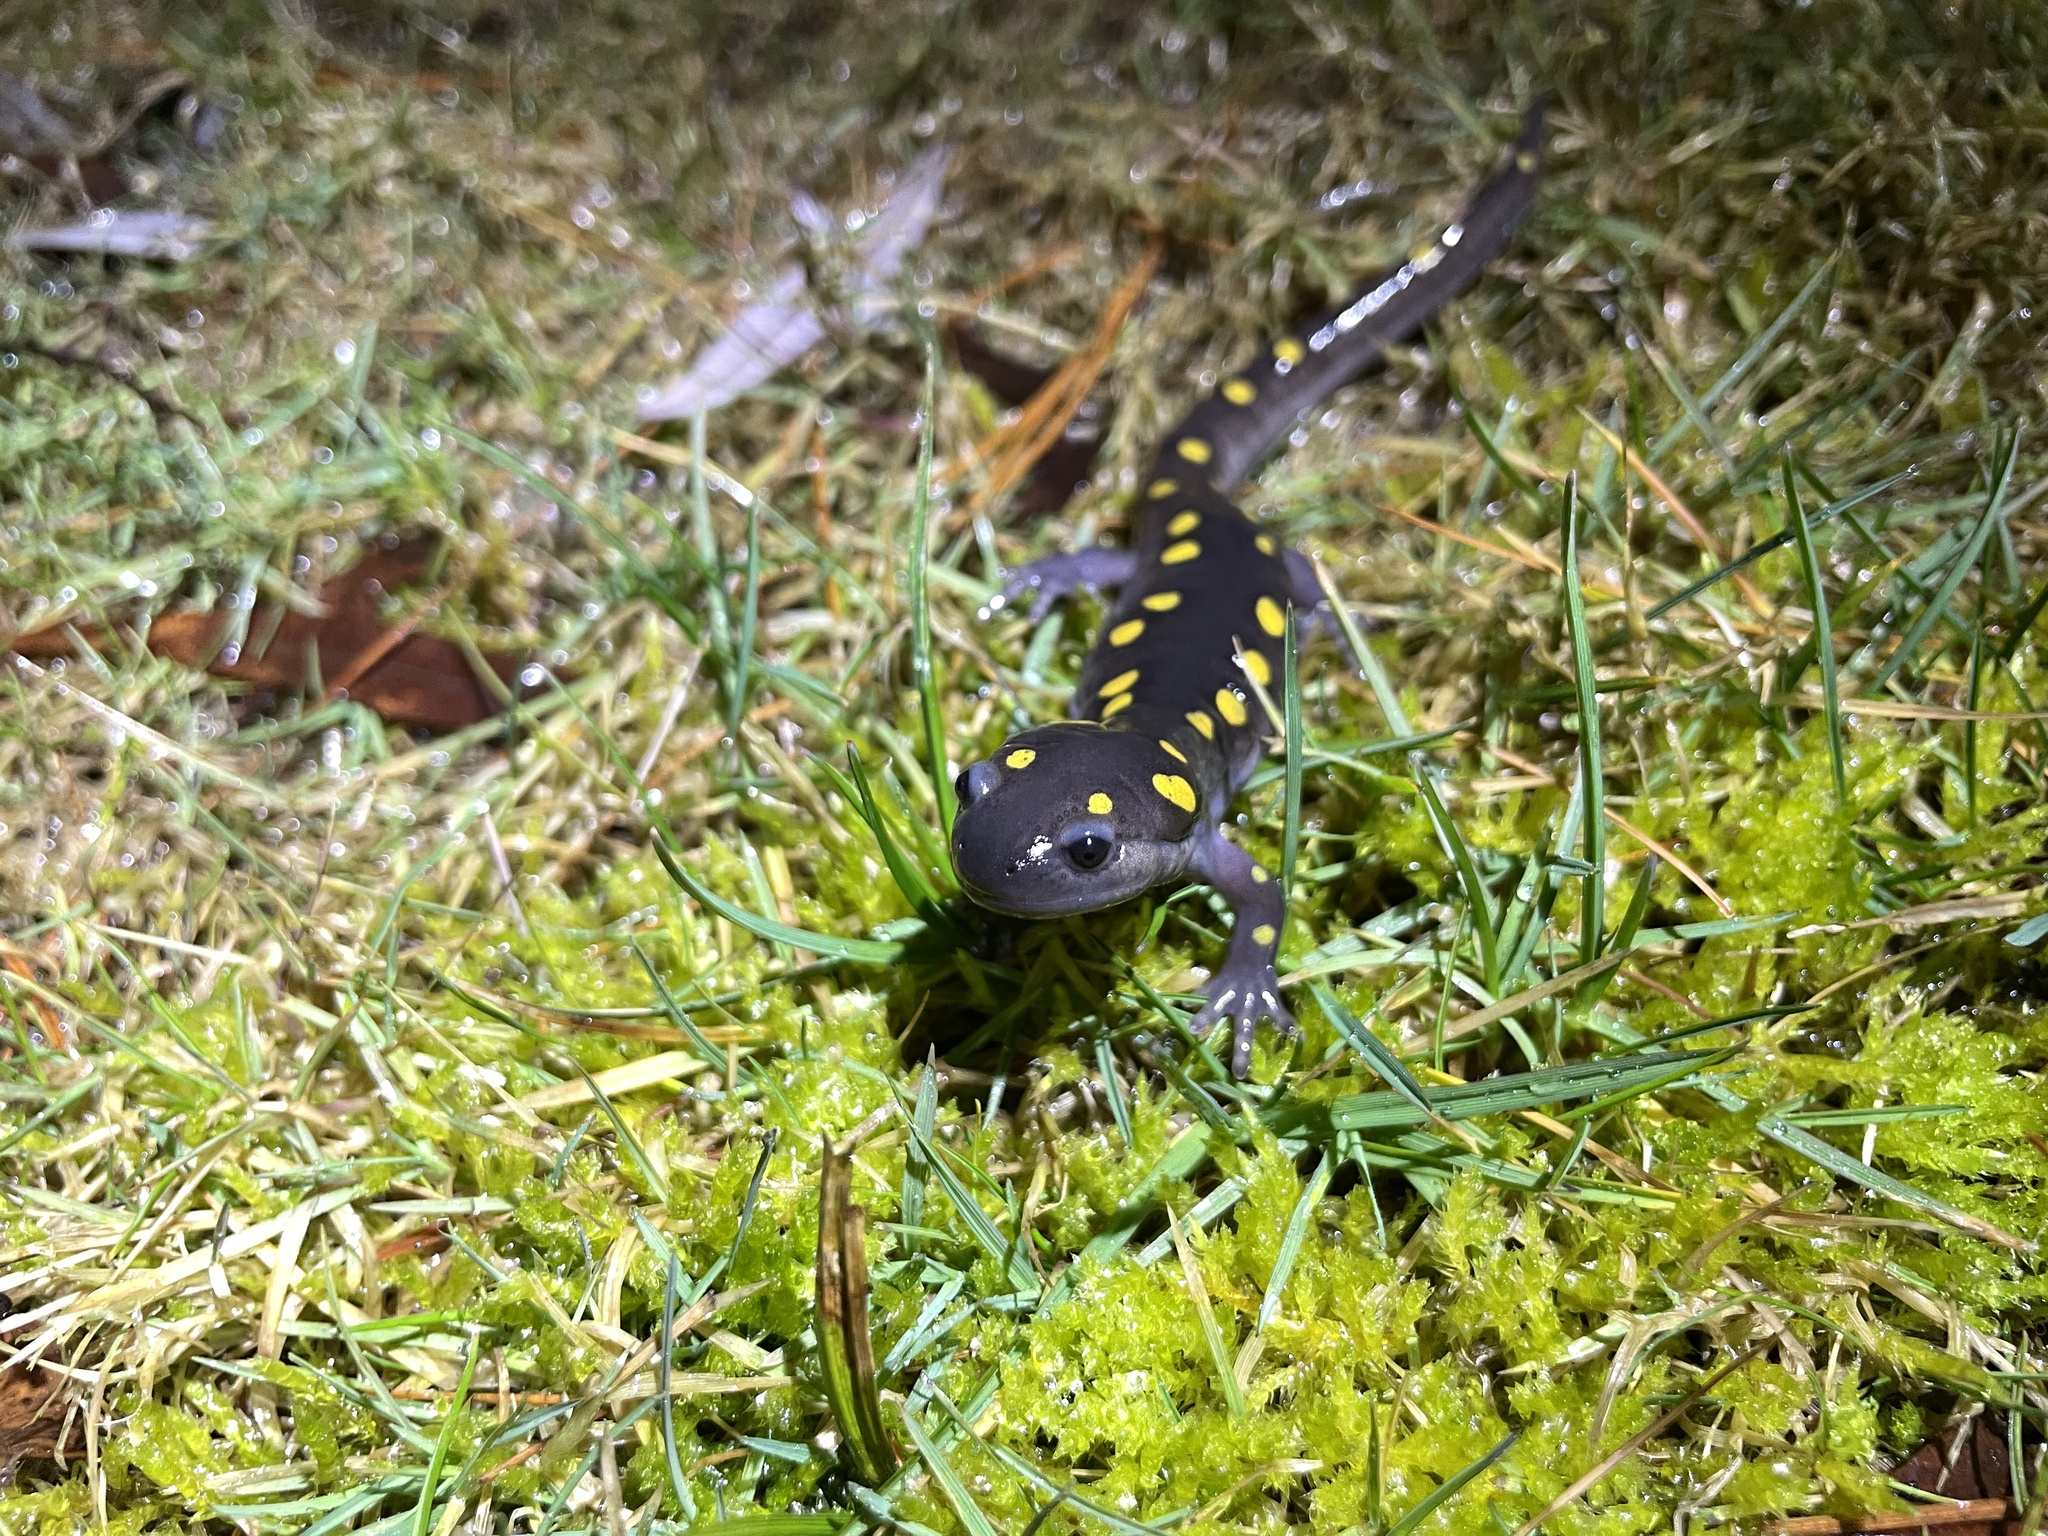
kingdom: Animalia
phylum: Chordata
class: Amphibia
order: Caudata
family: Ambystomatidae
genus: Ambystoma
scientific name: Ambystoma maculatum
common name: Spotted salamander
